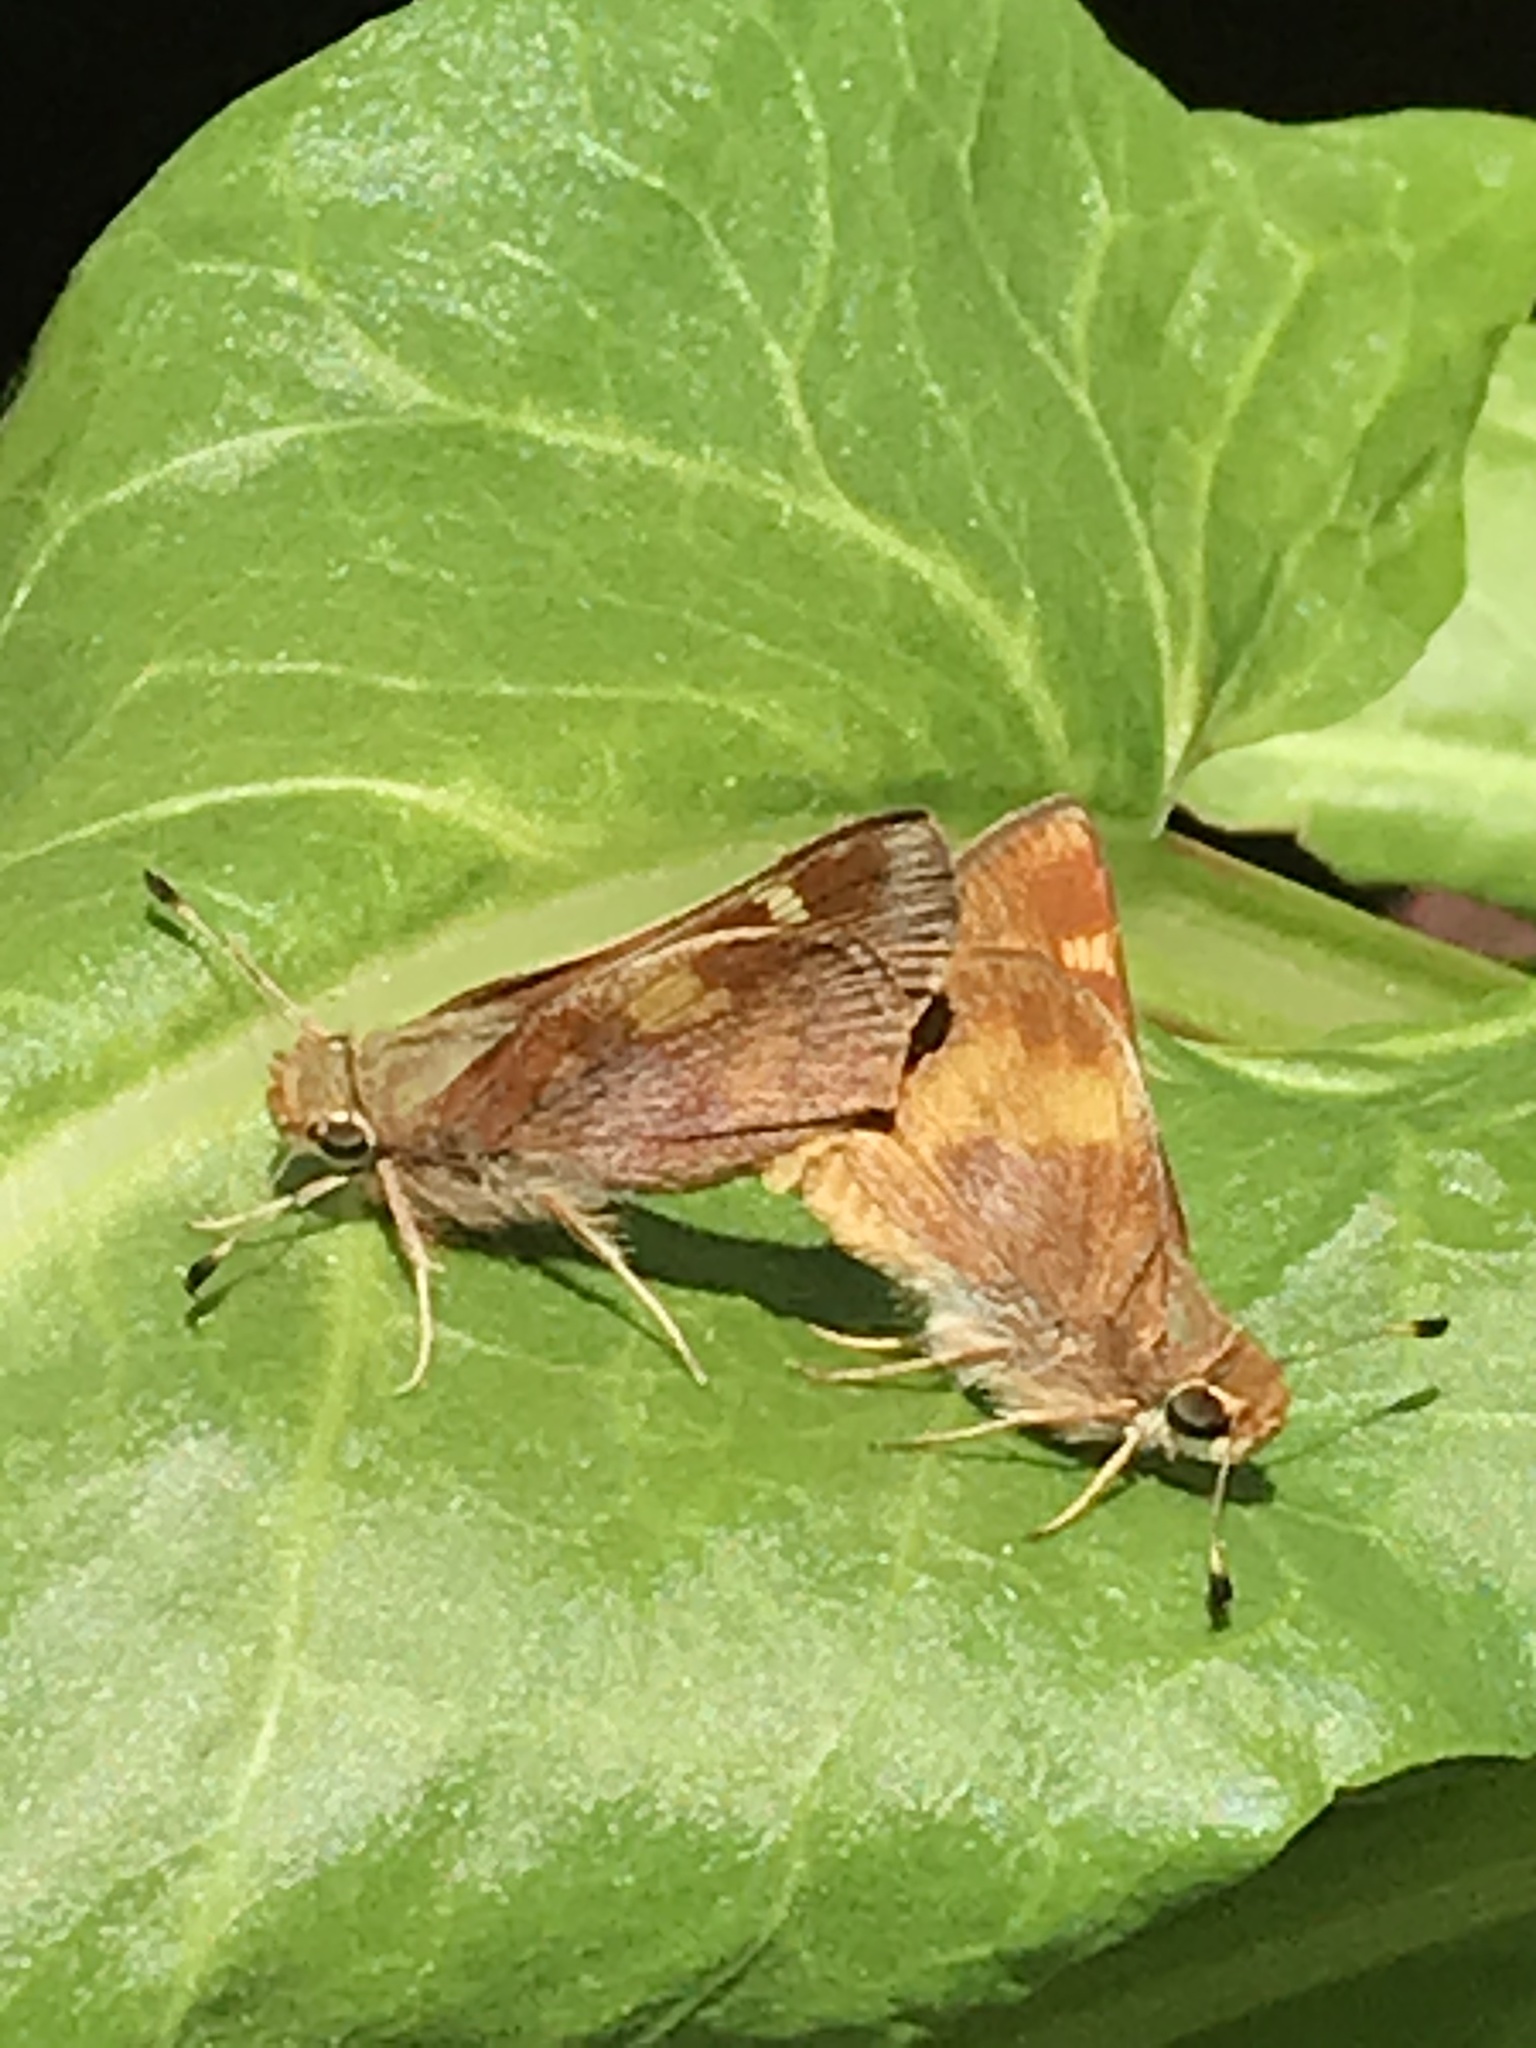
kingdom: Animalia
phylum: Arthropoda
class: Insecta
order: Lepidoptera
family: Hesperiidae
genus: Lon
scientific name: Lon melane
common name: Umber skipper
